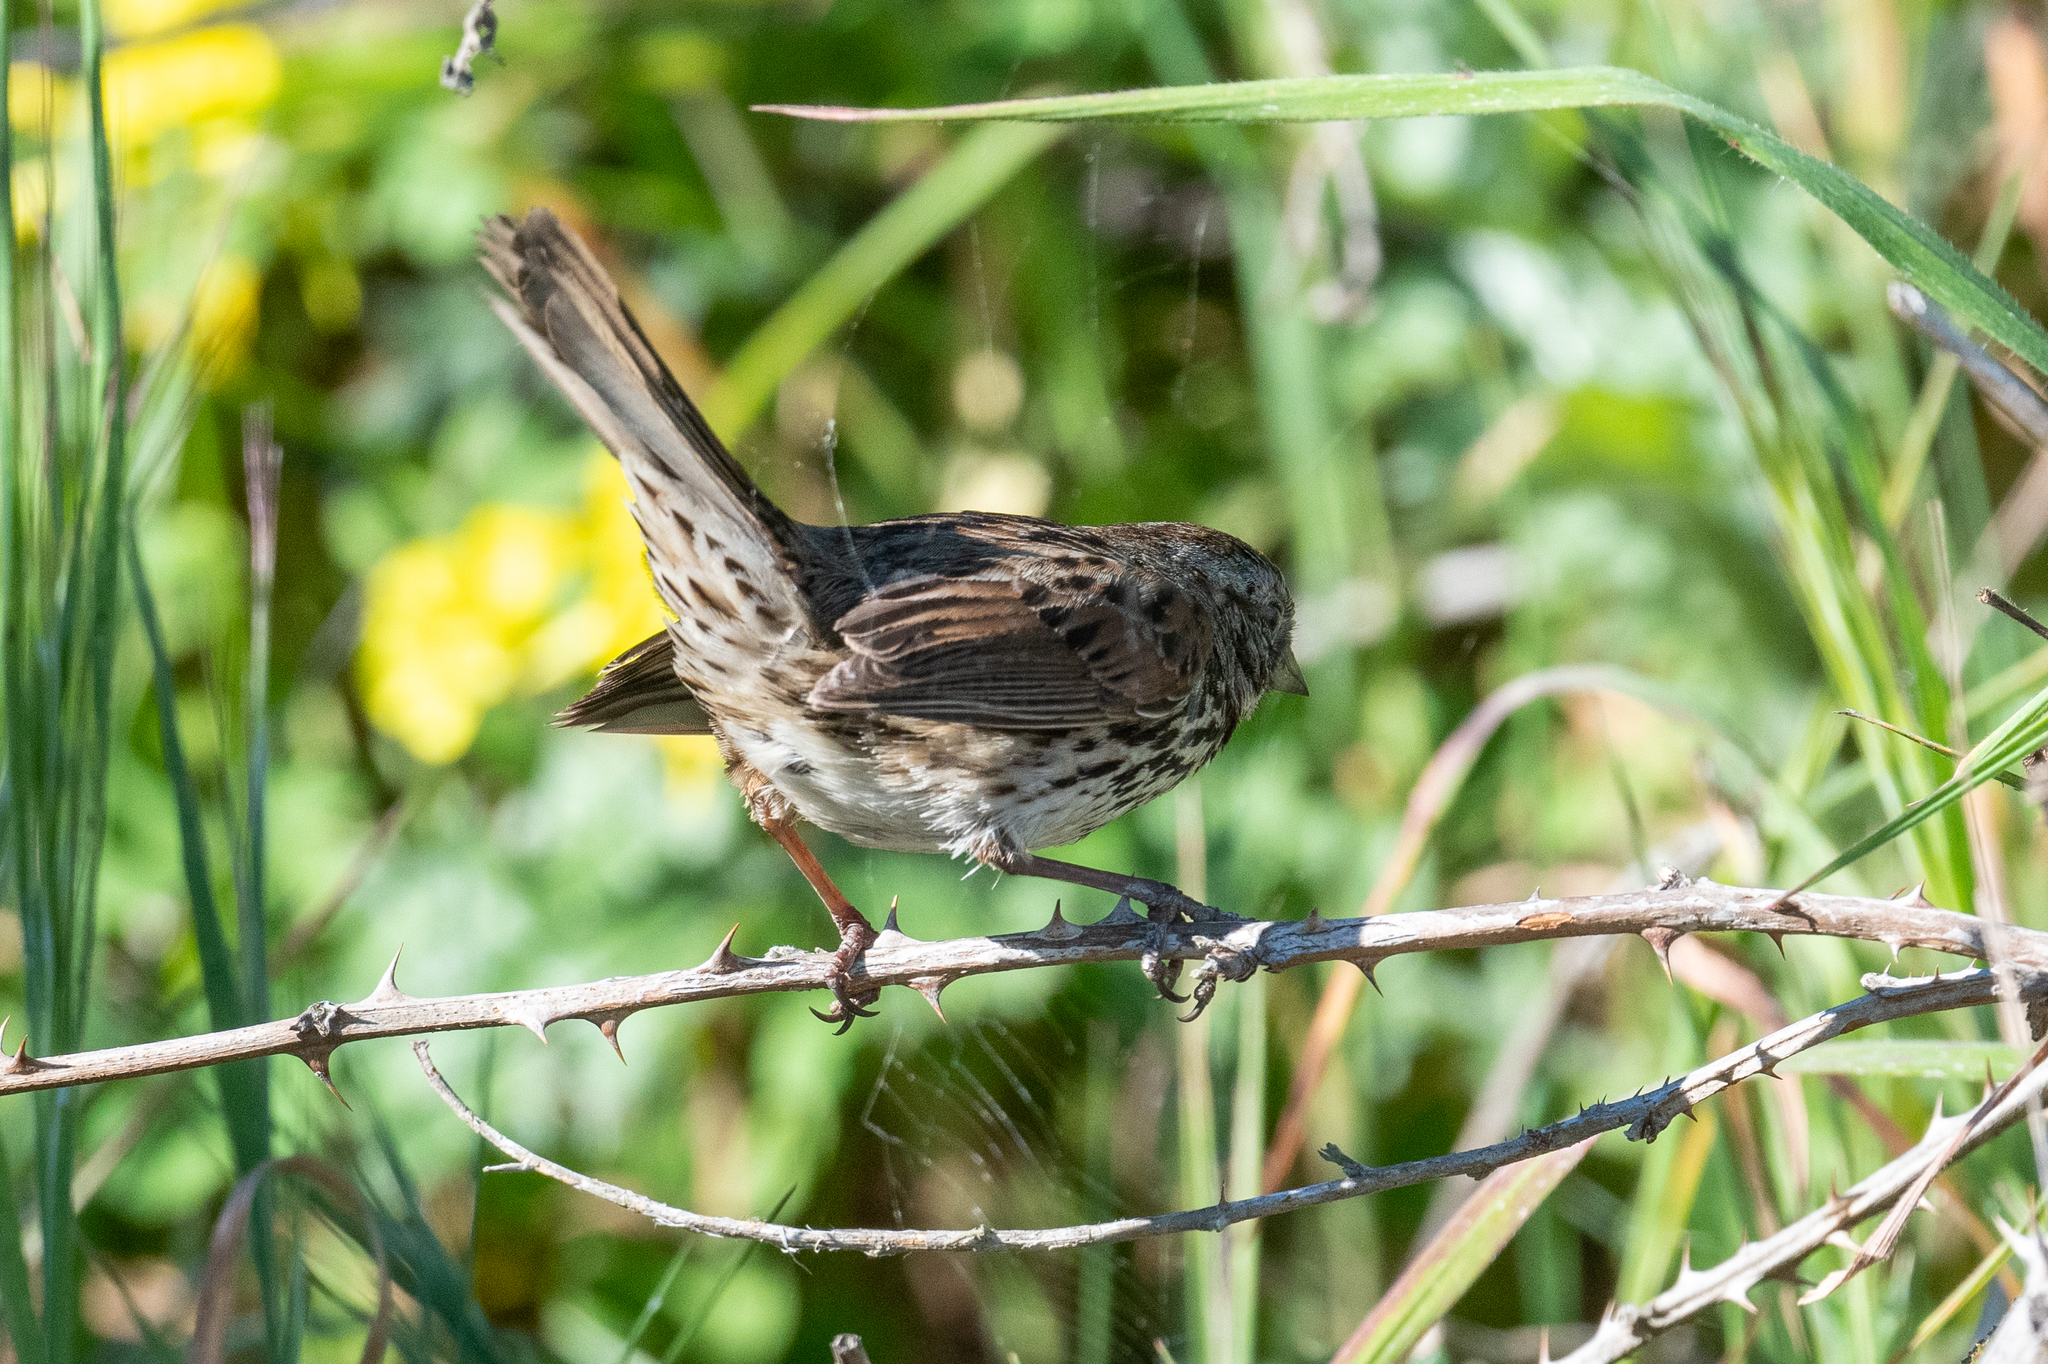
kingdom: Animalia
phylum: Chordata
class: Aves
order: Passeriformes
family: Passerellidae
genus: Melospiza
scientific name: Melospiza melodia
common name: Song sparrow
